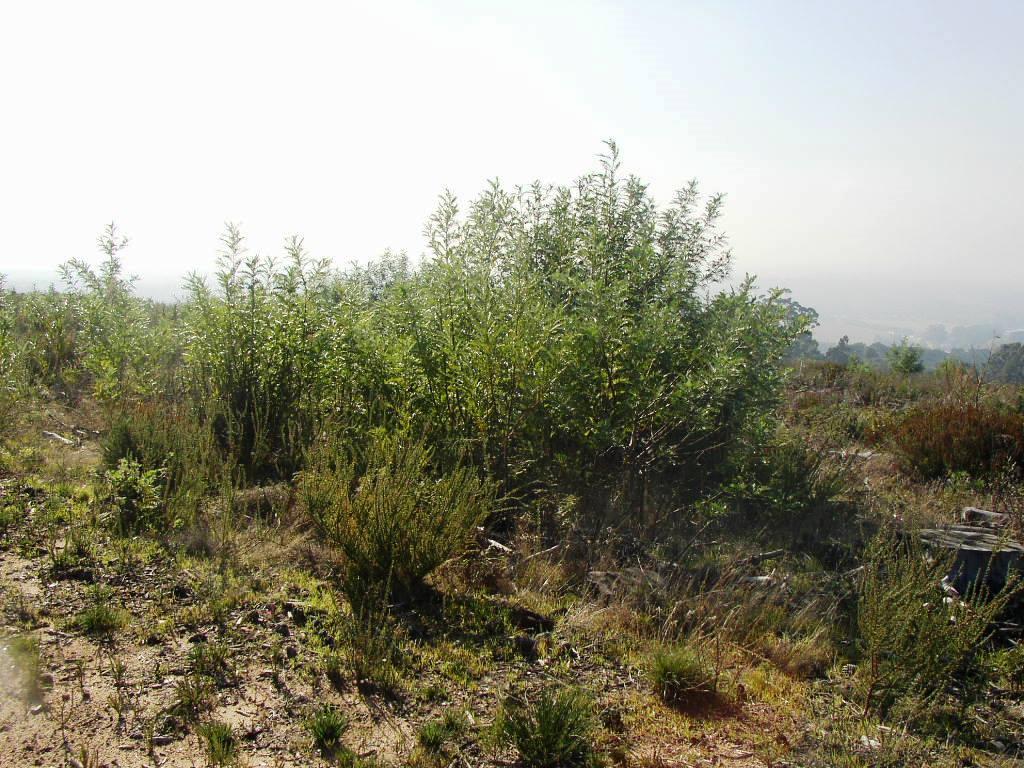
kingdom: Plantae
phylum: Tracheophyta
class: Magnoliopsida
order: Fabales
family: Fabaceae
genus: Virgilia
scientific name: Virgilia oroboides
